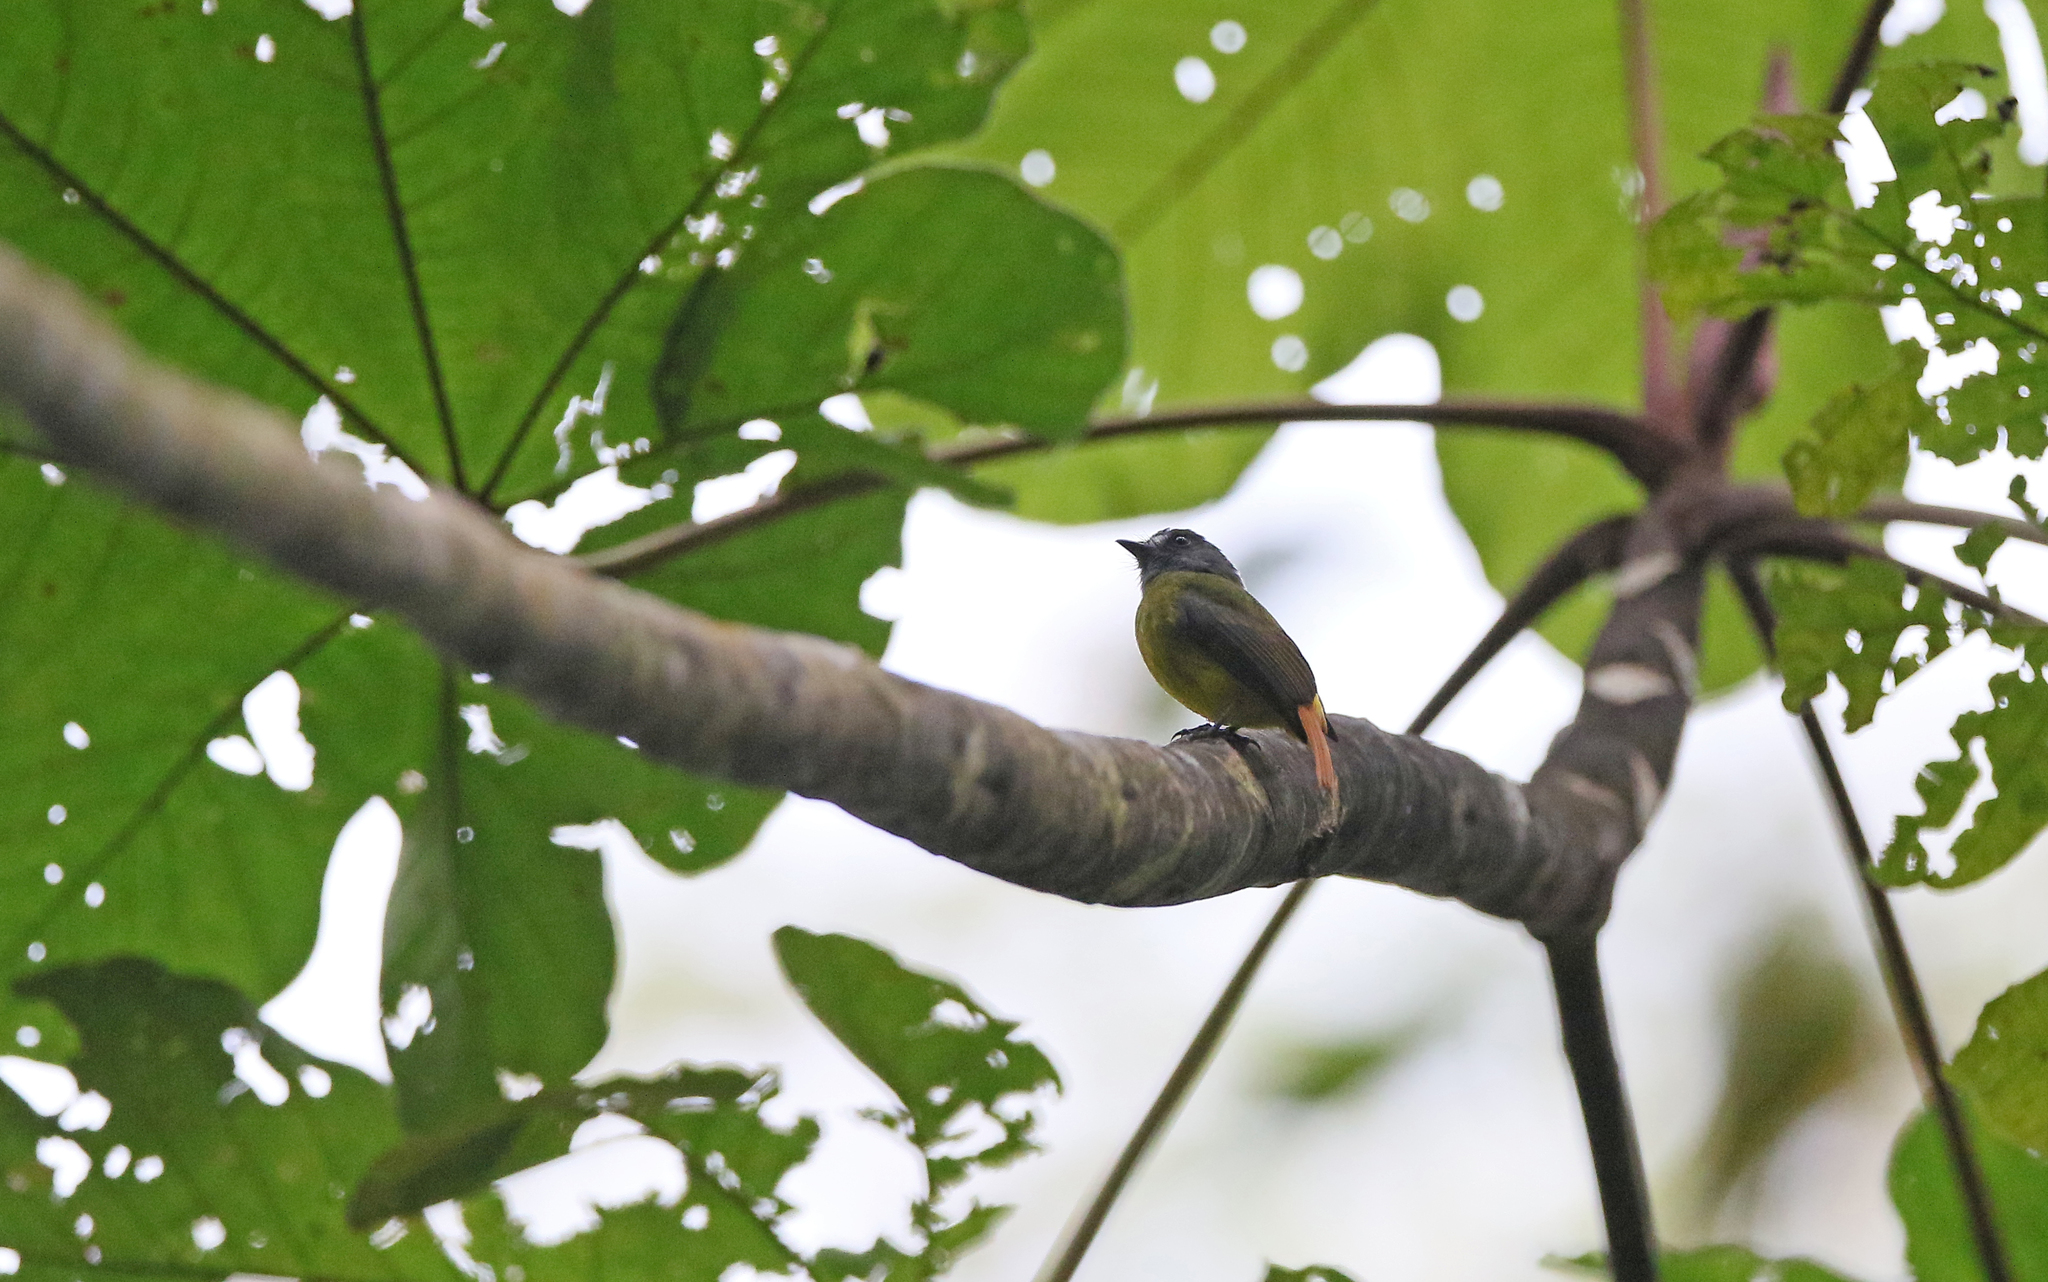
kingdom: Animalia
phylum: Chordata
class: Aves
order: Passeriformes
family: Tyrannidae
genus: Myiotriccus
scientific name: Myiotriccus ornatus
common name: Ornate flycatcher
